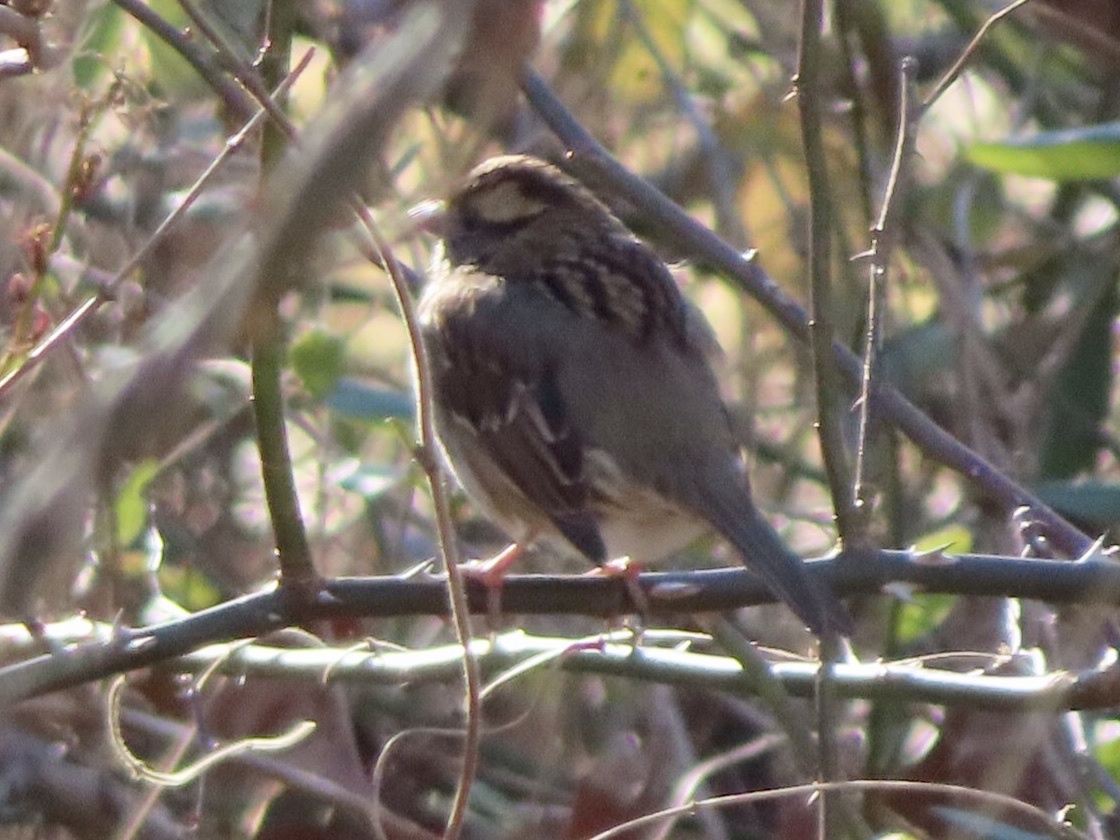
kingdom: Animalia
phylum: Chordata
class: Aves
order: Passeriformes
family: Passerellidae
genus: Zonotrichia
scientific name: Zonotrichia albicollis
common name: White-throated sparrow
